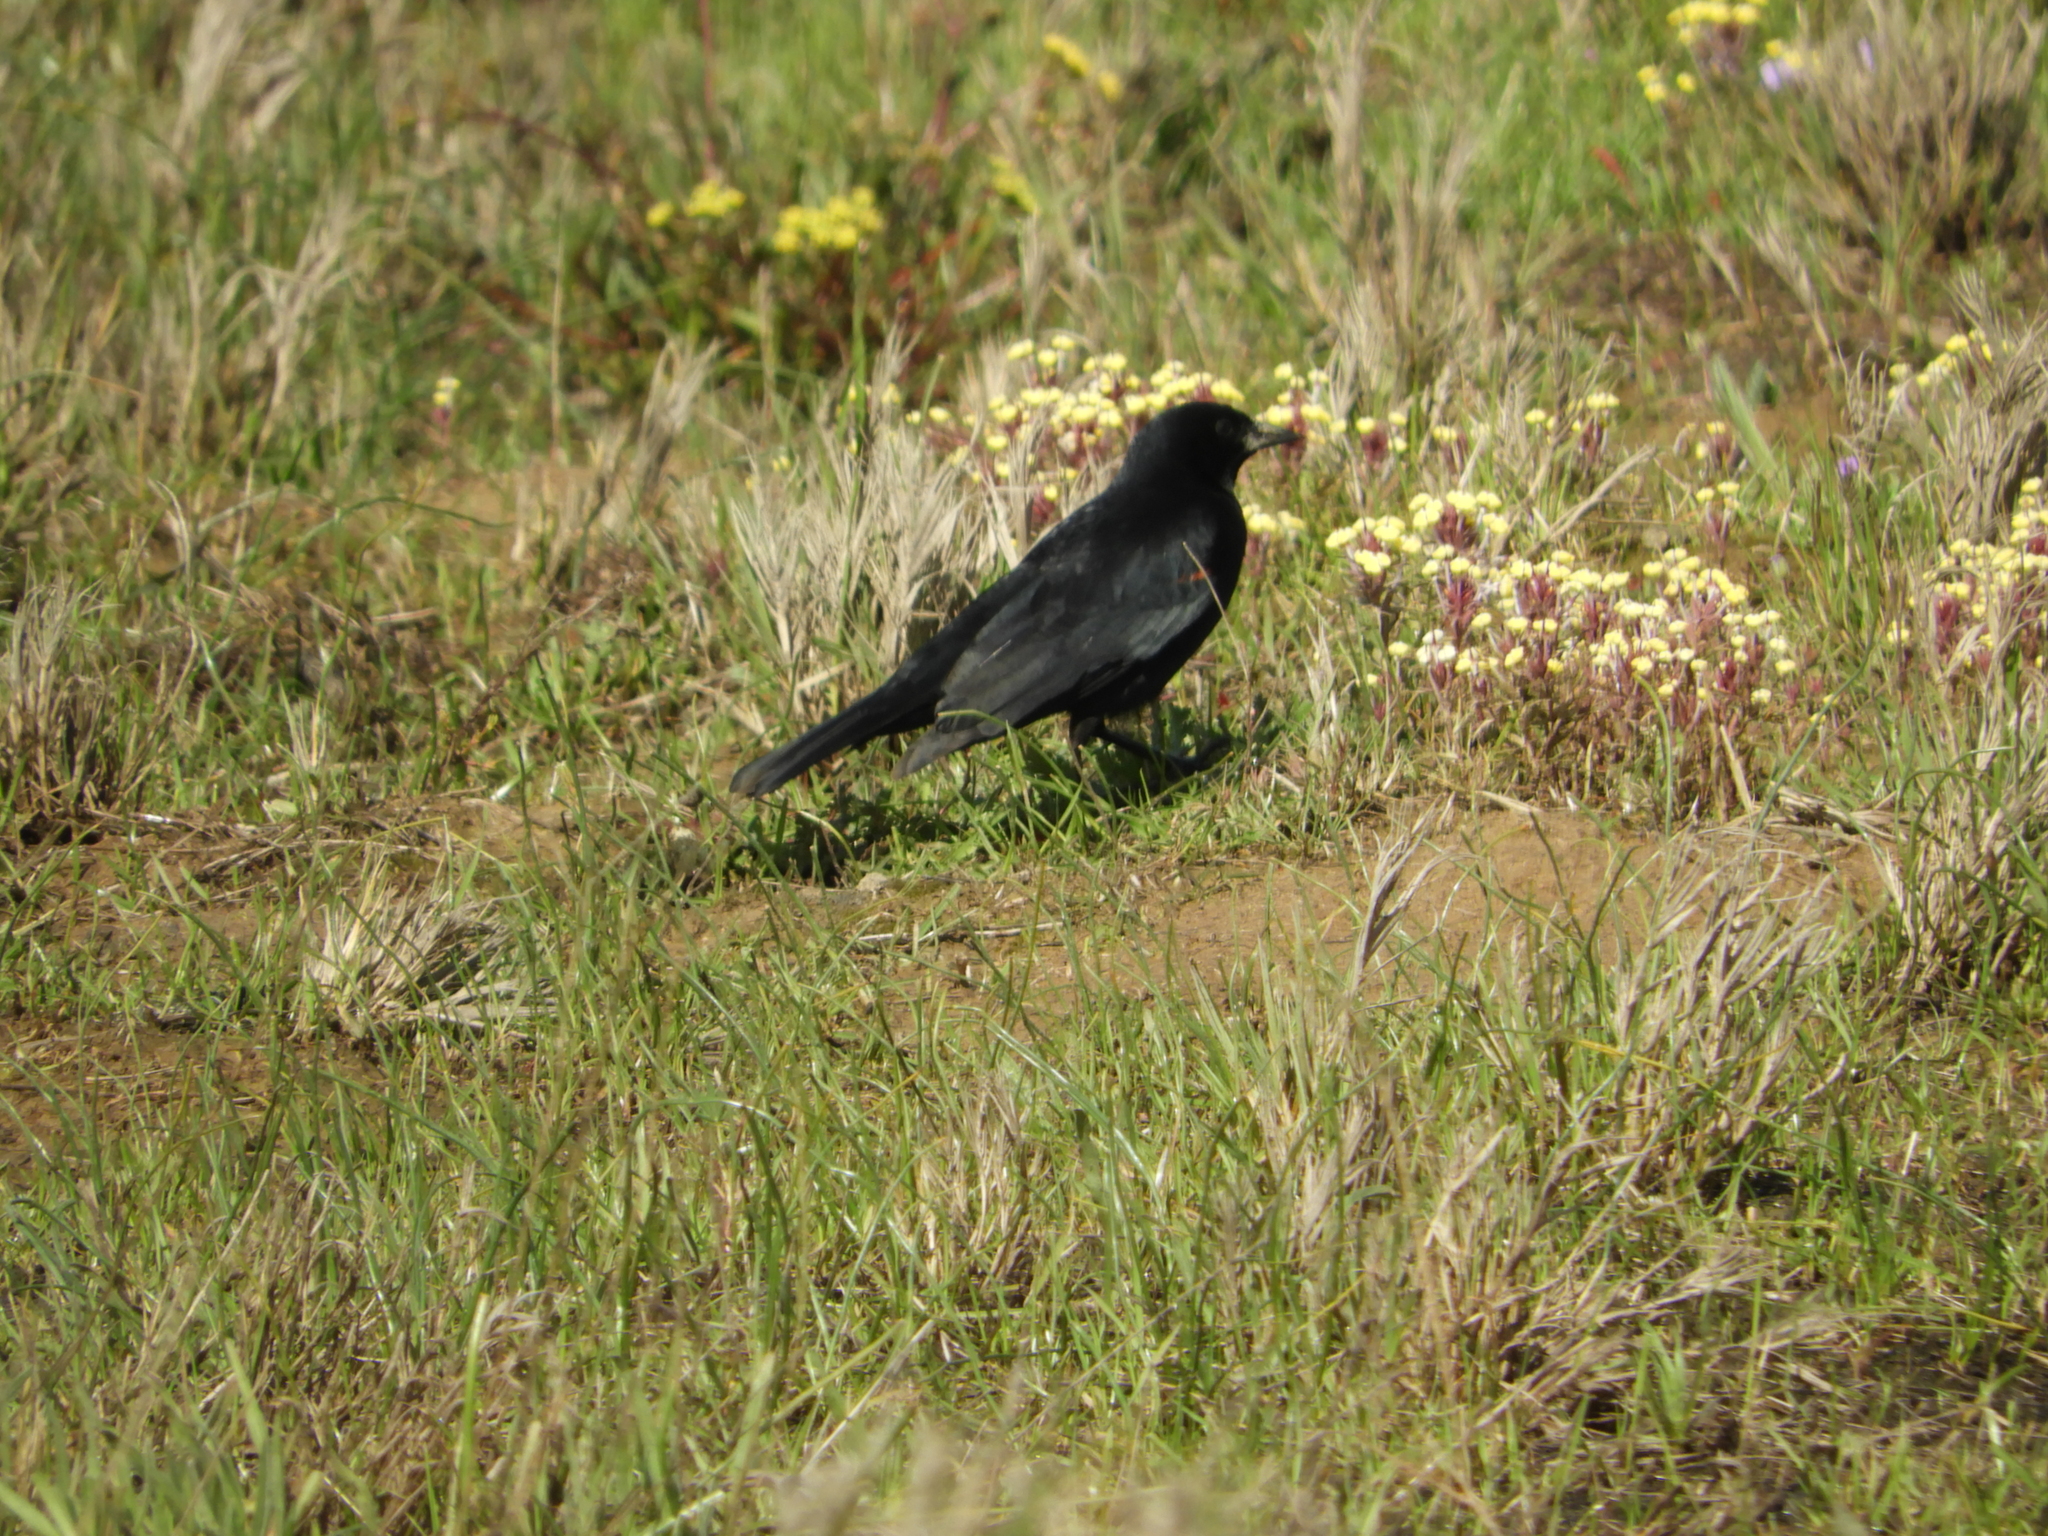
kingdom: Animalia
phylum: Chordata
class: Aves
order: Passeriformes
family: Icteridae
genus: Euphagus
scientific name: Euphagus cyanocephalus
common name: Brewer's blackbird
